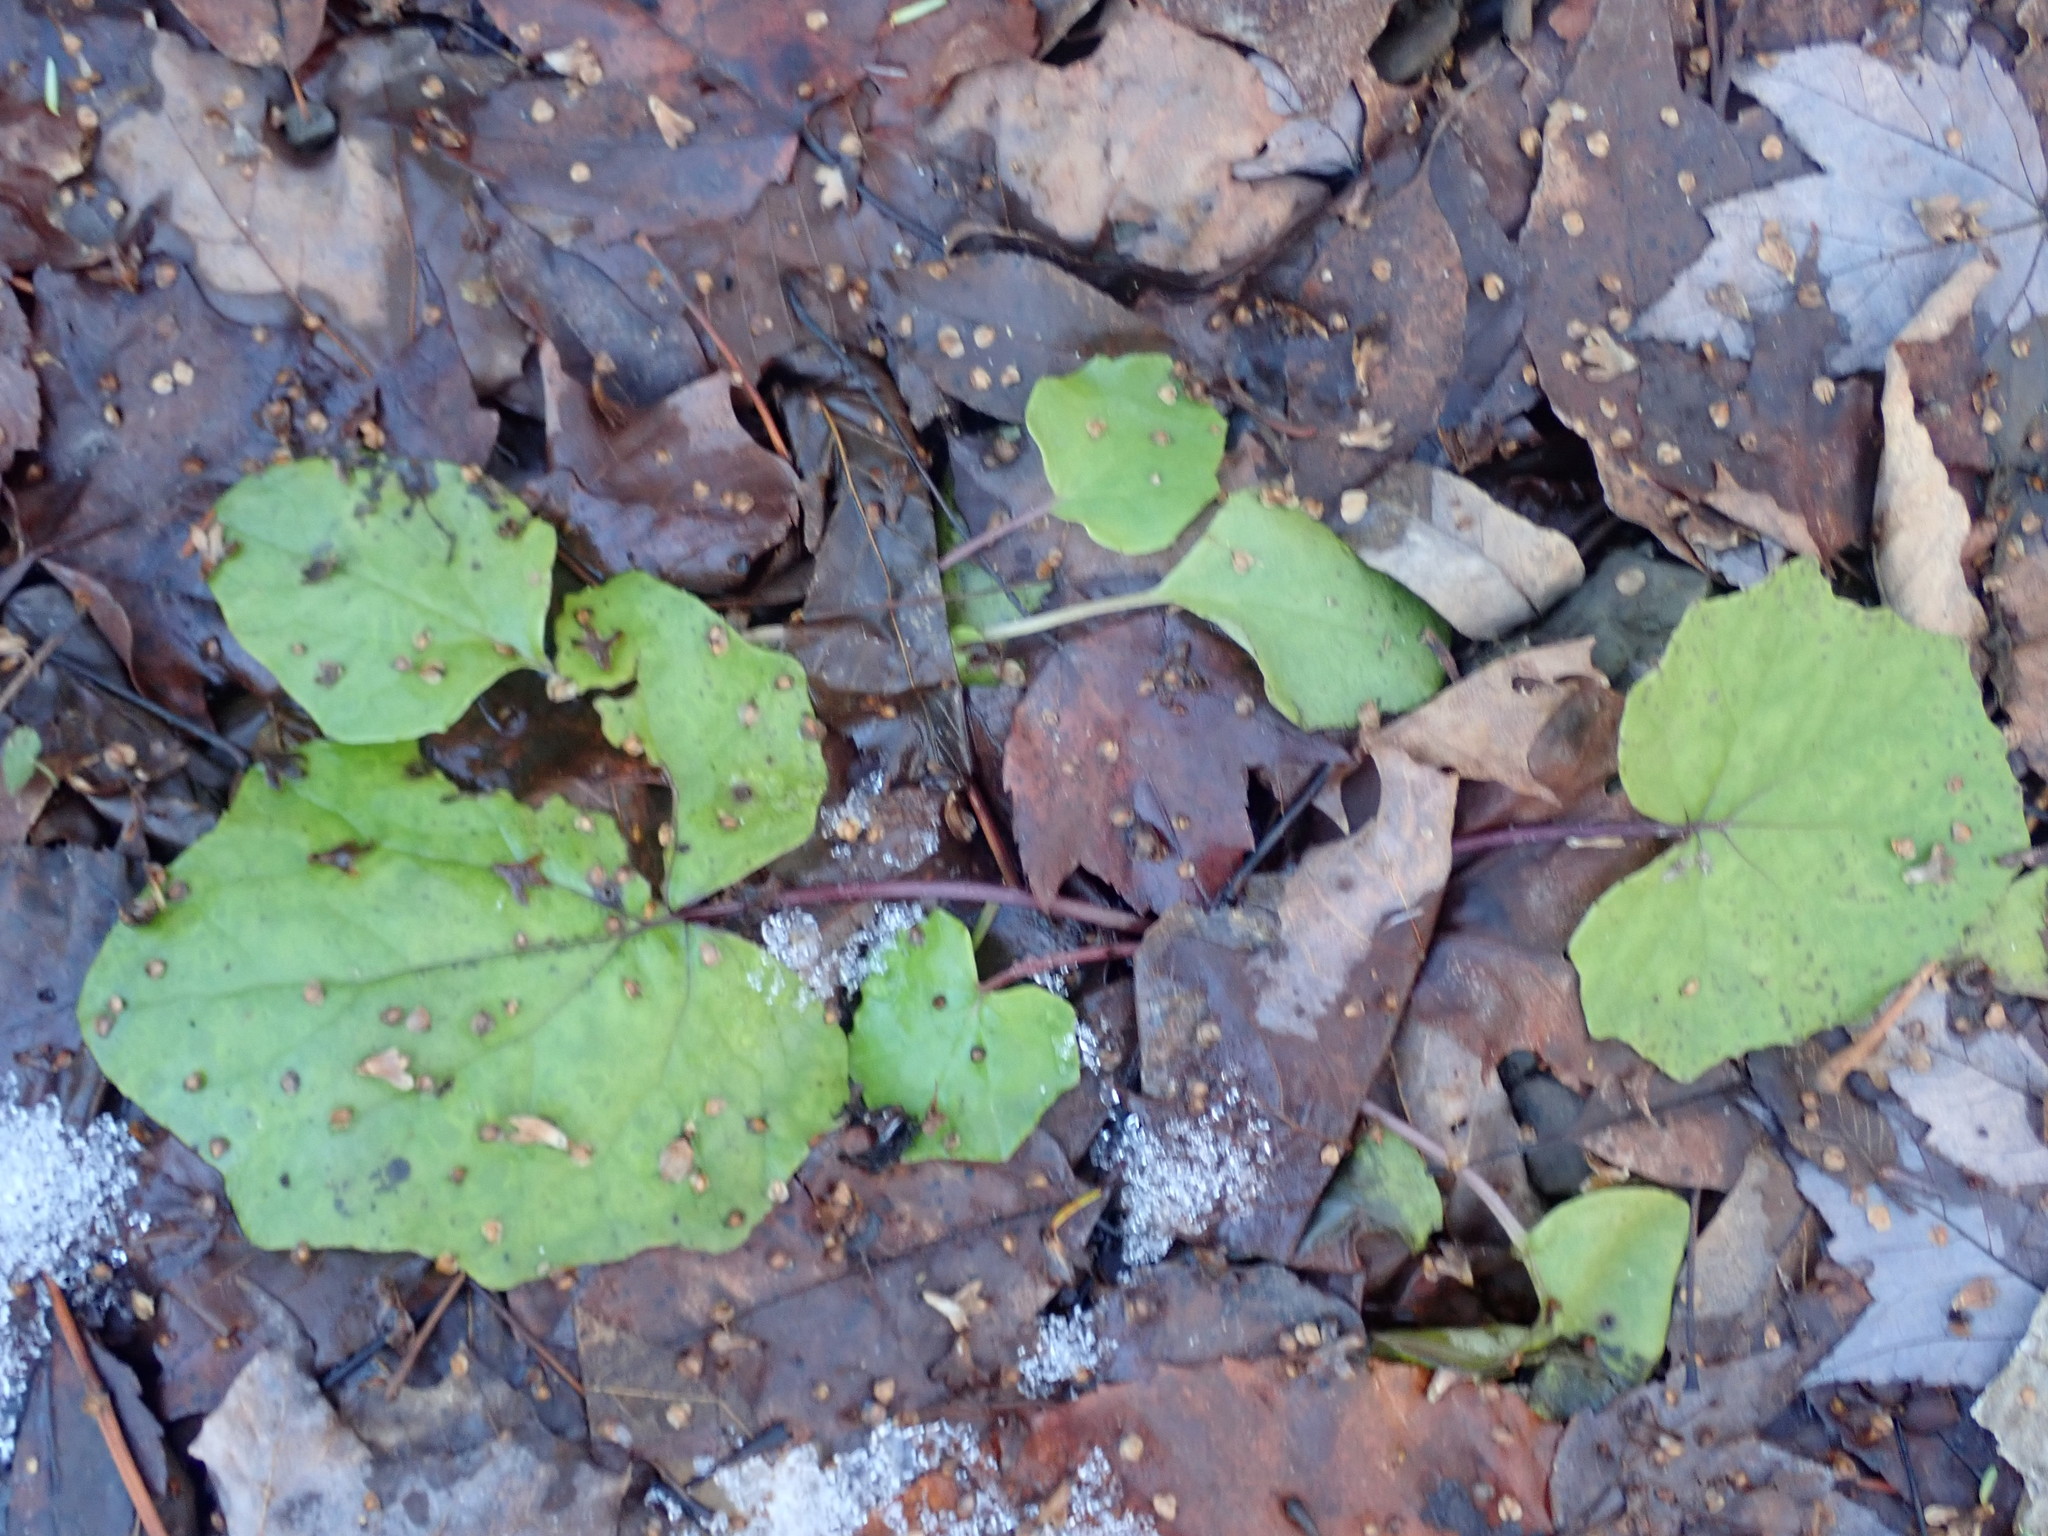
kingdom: Plantae
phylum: Tracheophyta
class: Magnoliopsida
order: Asterales
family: Asteraceae
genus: Tussilago
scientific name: Tussilago farfara
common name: Coltsfoot
